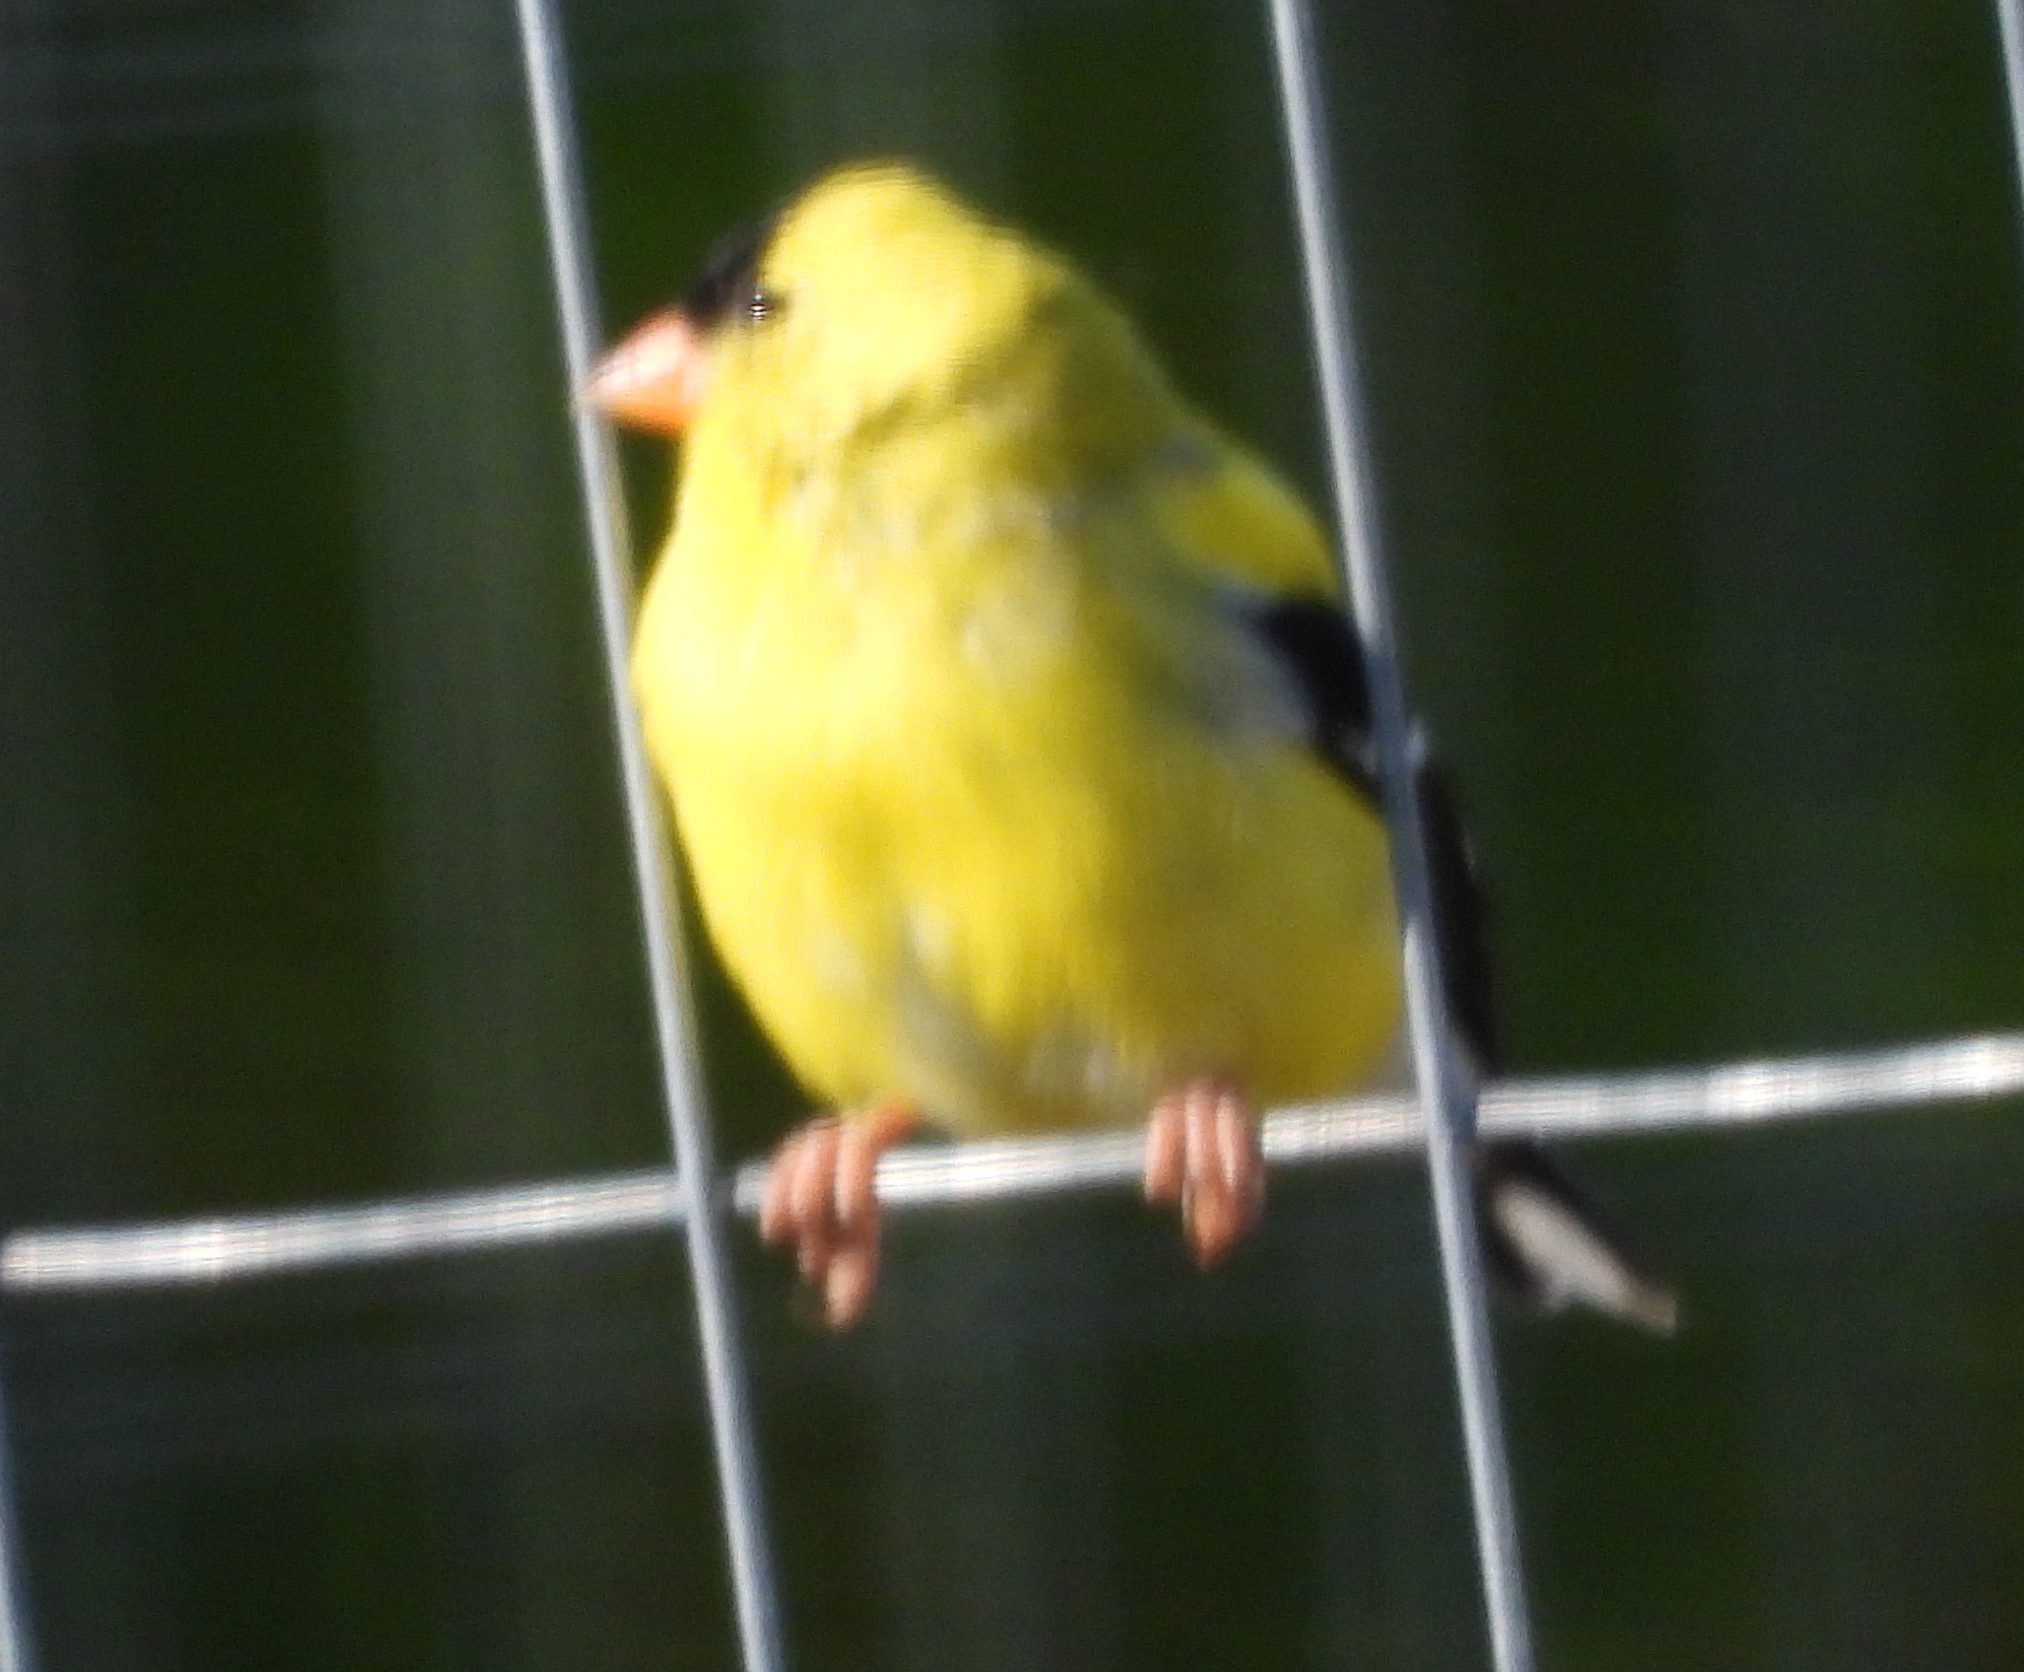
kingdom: Animalia
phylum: Chordata
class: Aves
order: Passeriformes
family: Fringillidae
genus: Spinus
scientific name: Spinus tristis
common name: American goldfinch
